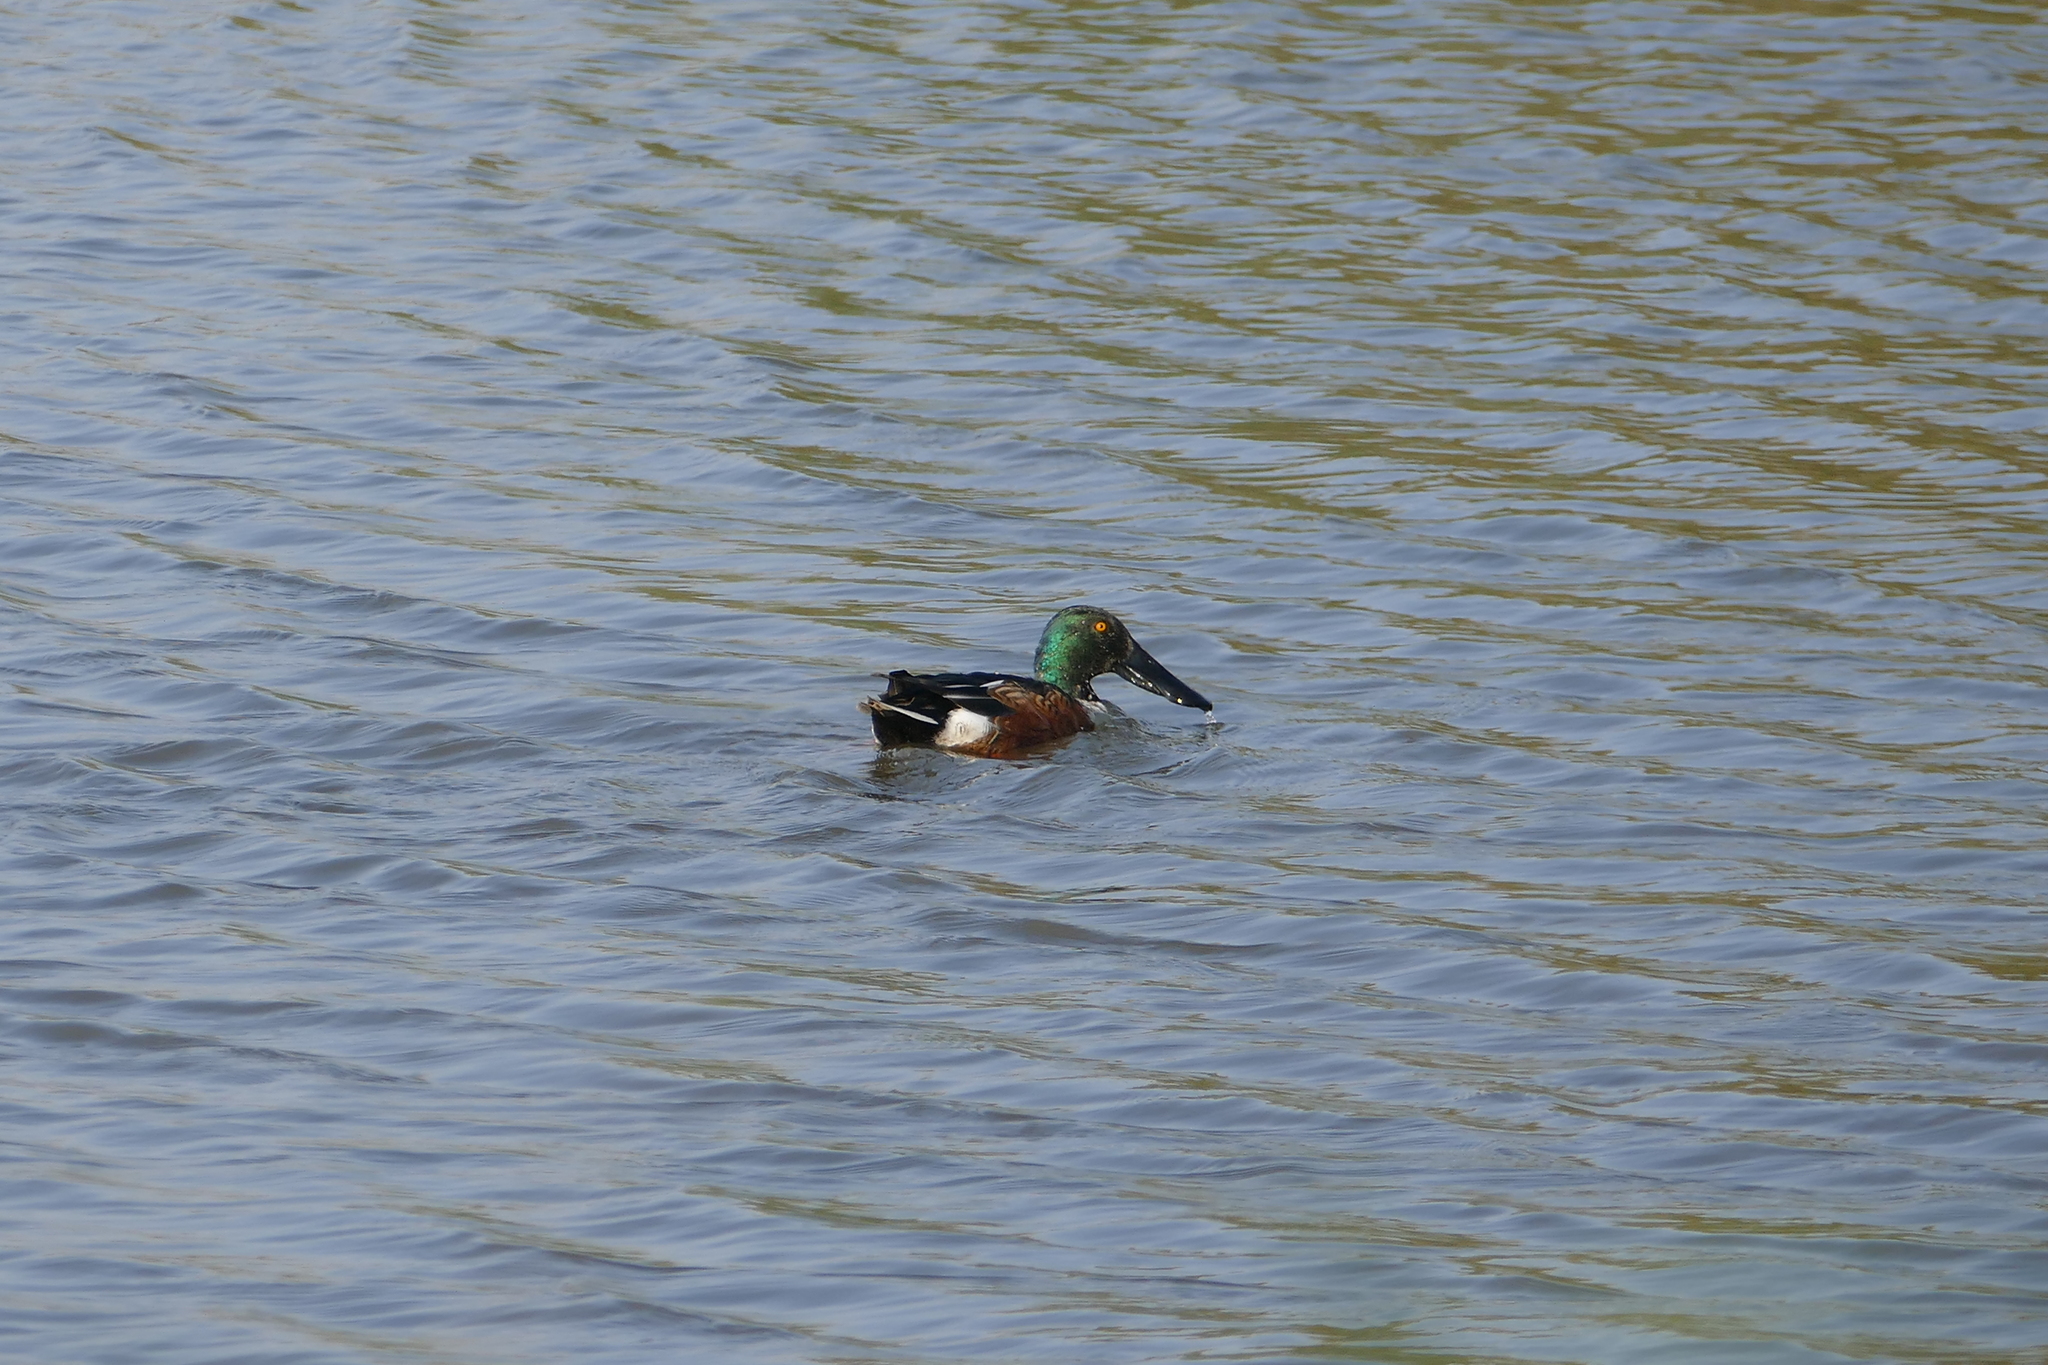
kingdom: Animalia
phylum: Chordata
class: Aves
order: Anseriformes
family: Anatidae
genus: Spatula
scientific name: Spatula clypeata
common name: Northern shoveler
